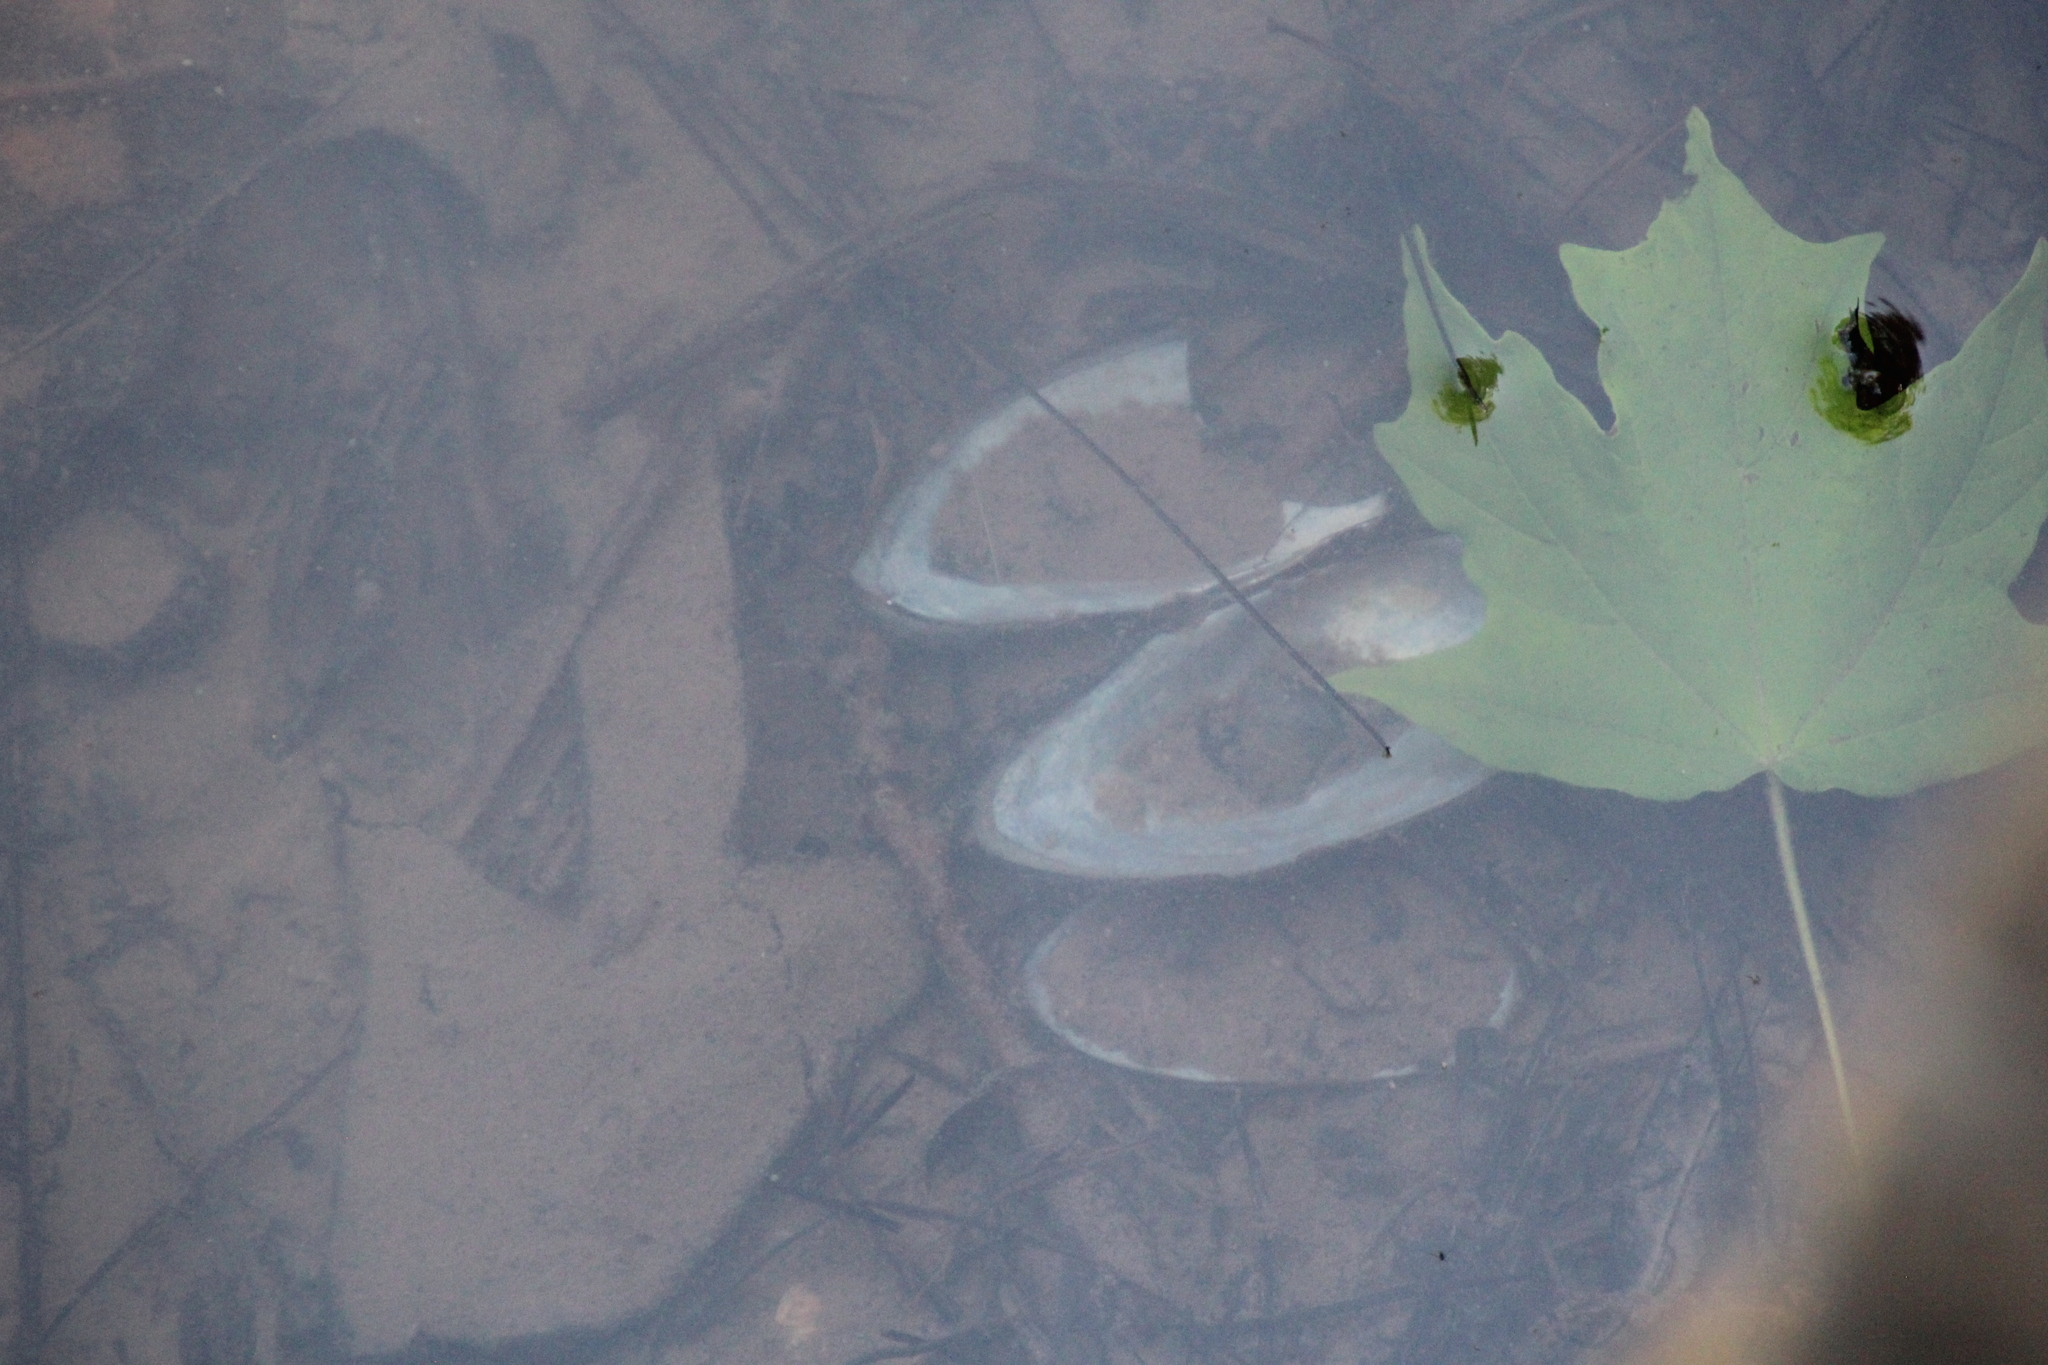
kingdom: Animalia
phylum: Mollusca
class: Bivalvia
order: Unionida
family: Unionidae
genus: Pyganodon
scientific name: Pyganodon cataracta
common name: Eastern floater
